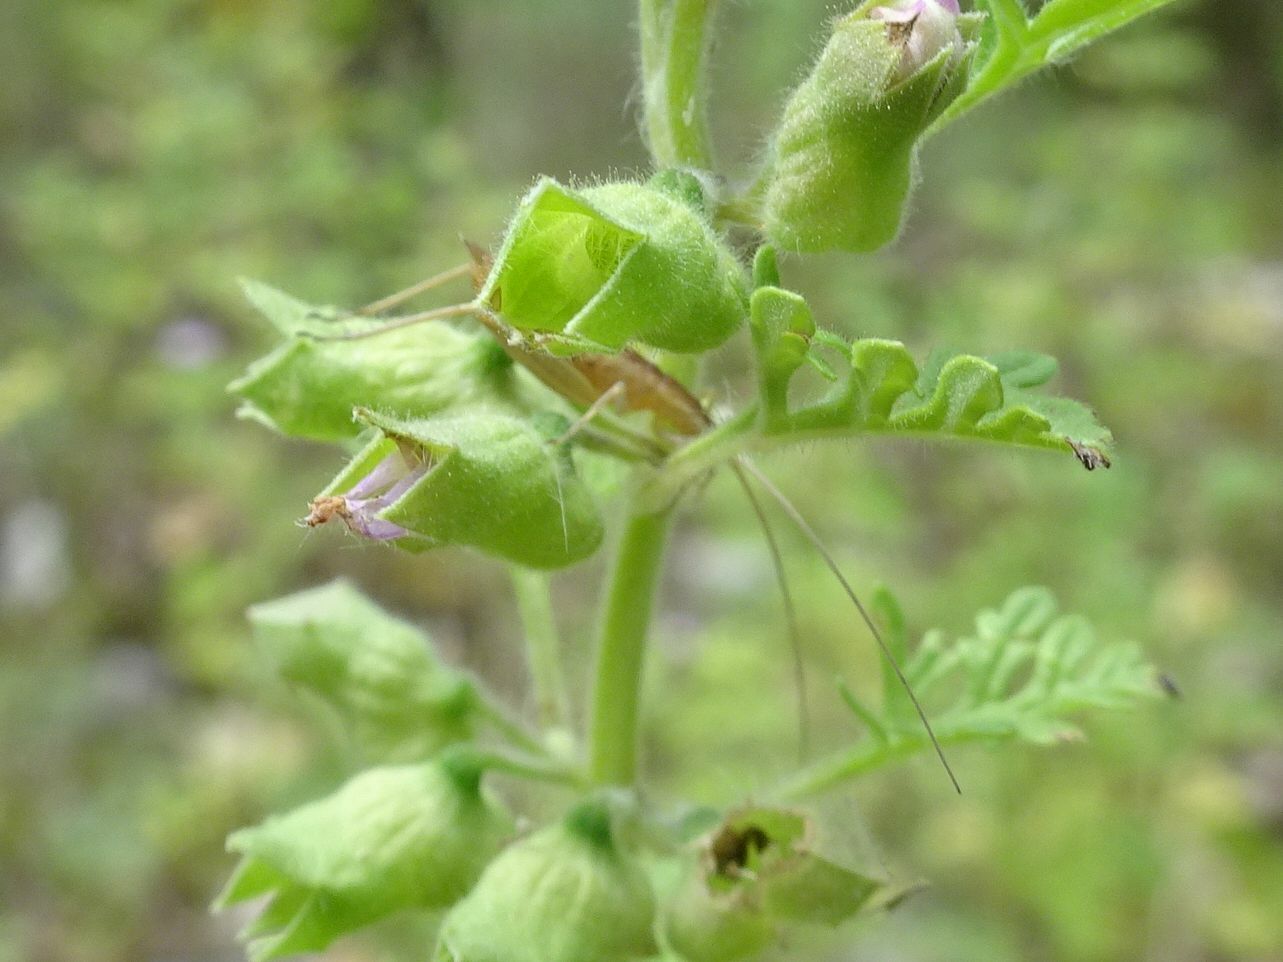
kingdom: Animalia
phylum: Arthropoda
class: Insecta
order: Orthoptera
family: Gryllidae
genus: Oecanthus
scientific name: Oecanthus pellucens
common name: Tree-cricket
